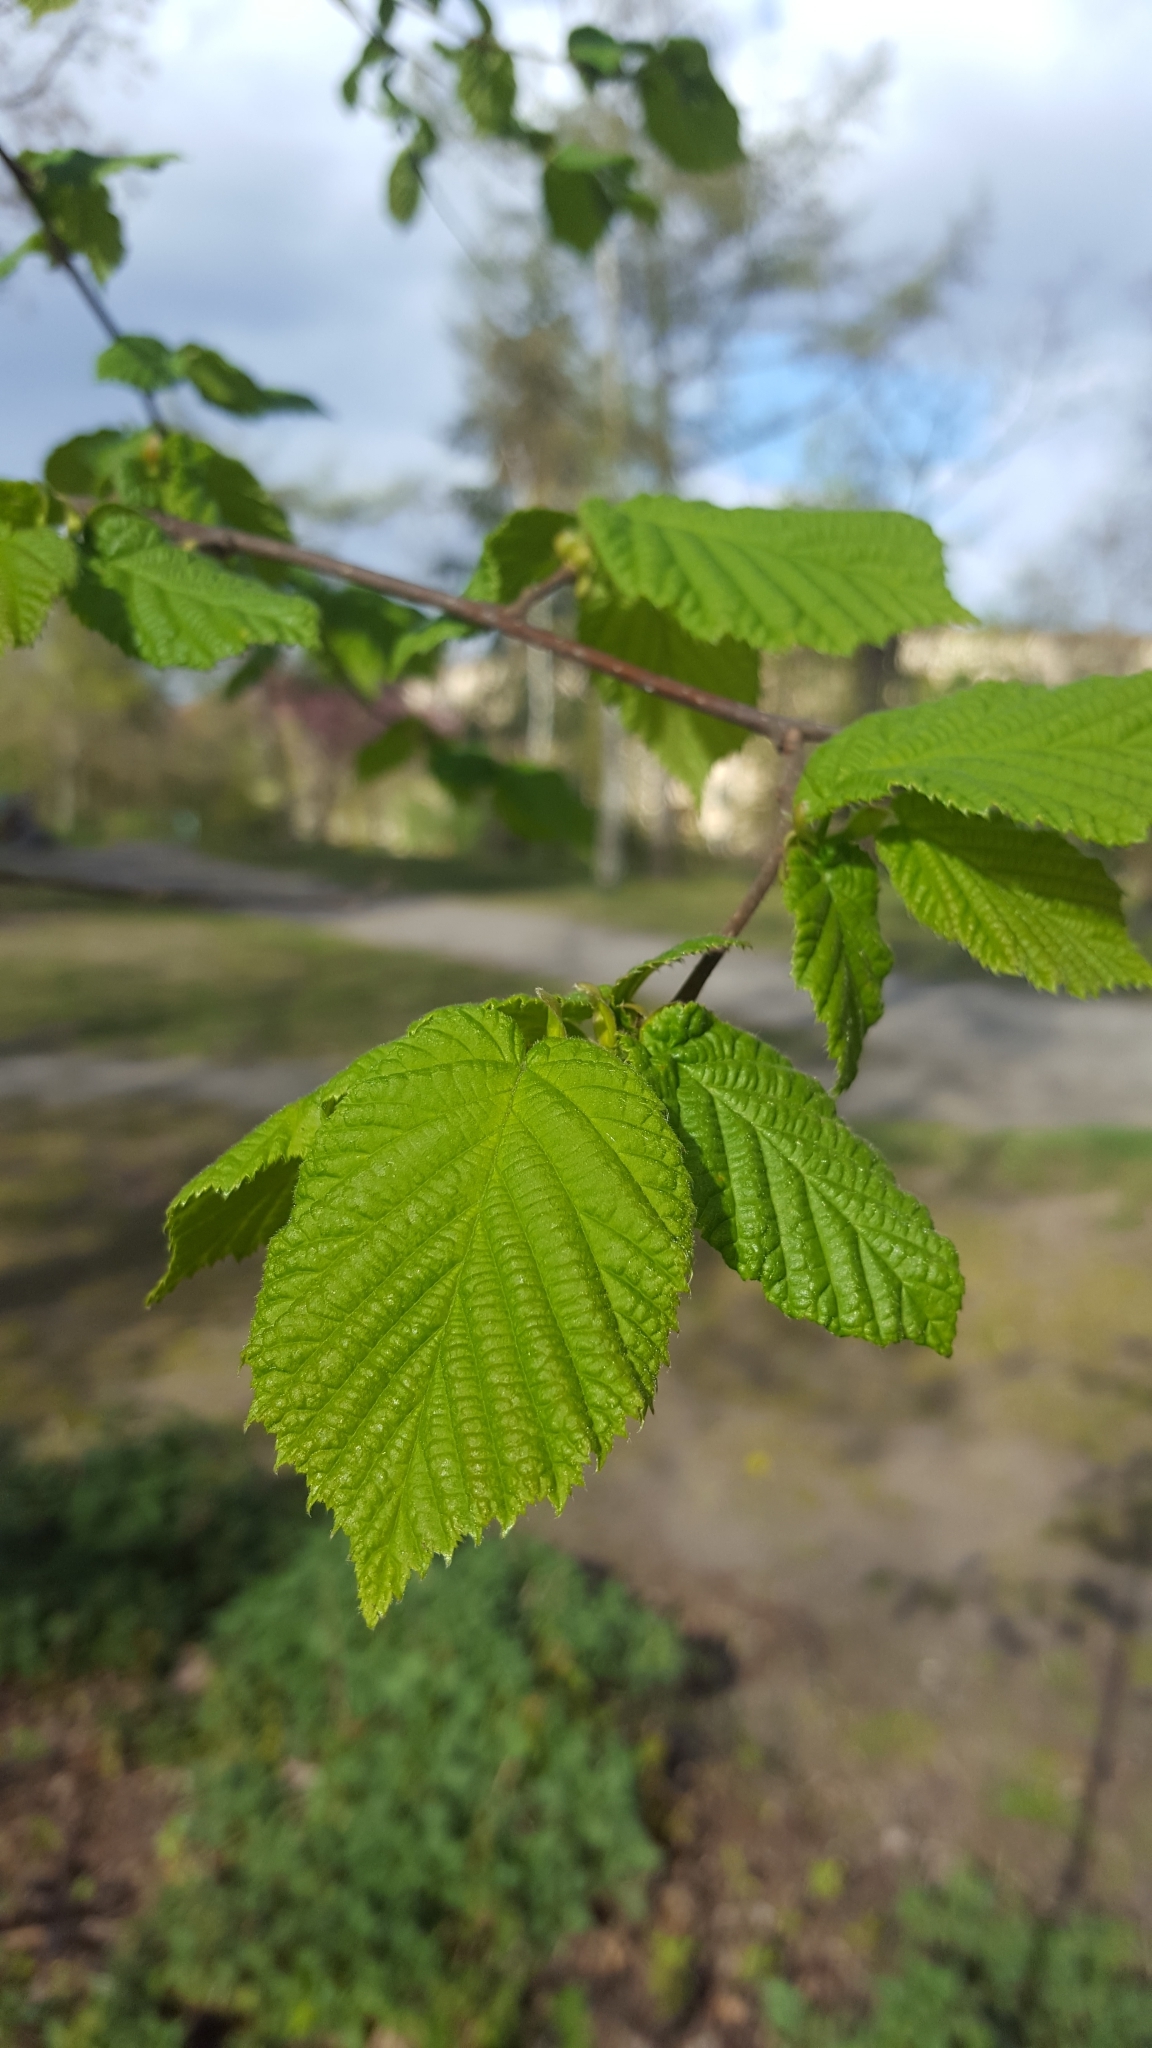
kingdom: Plantae
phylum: Tracheophyta
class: Magnoliopsida
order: Fagales
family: Betulaceae
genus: Corylus
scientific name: Corylus avellana
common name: European hazel
